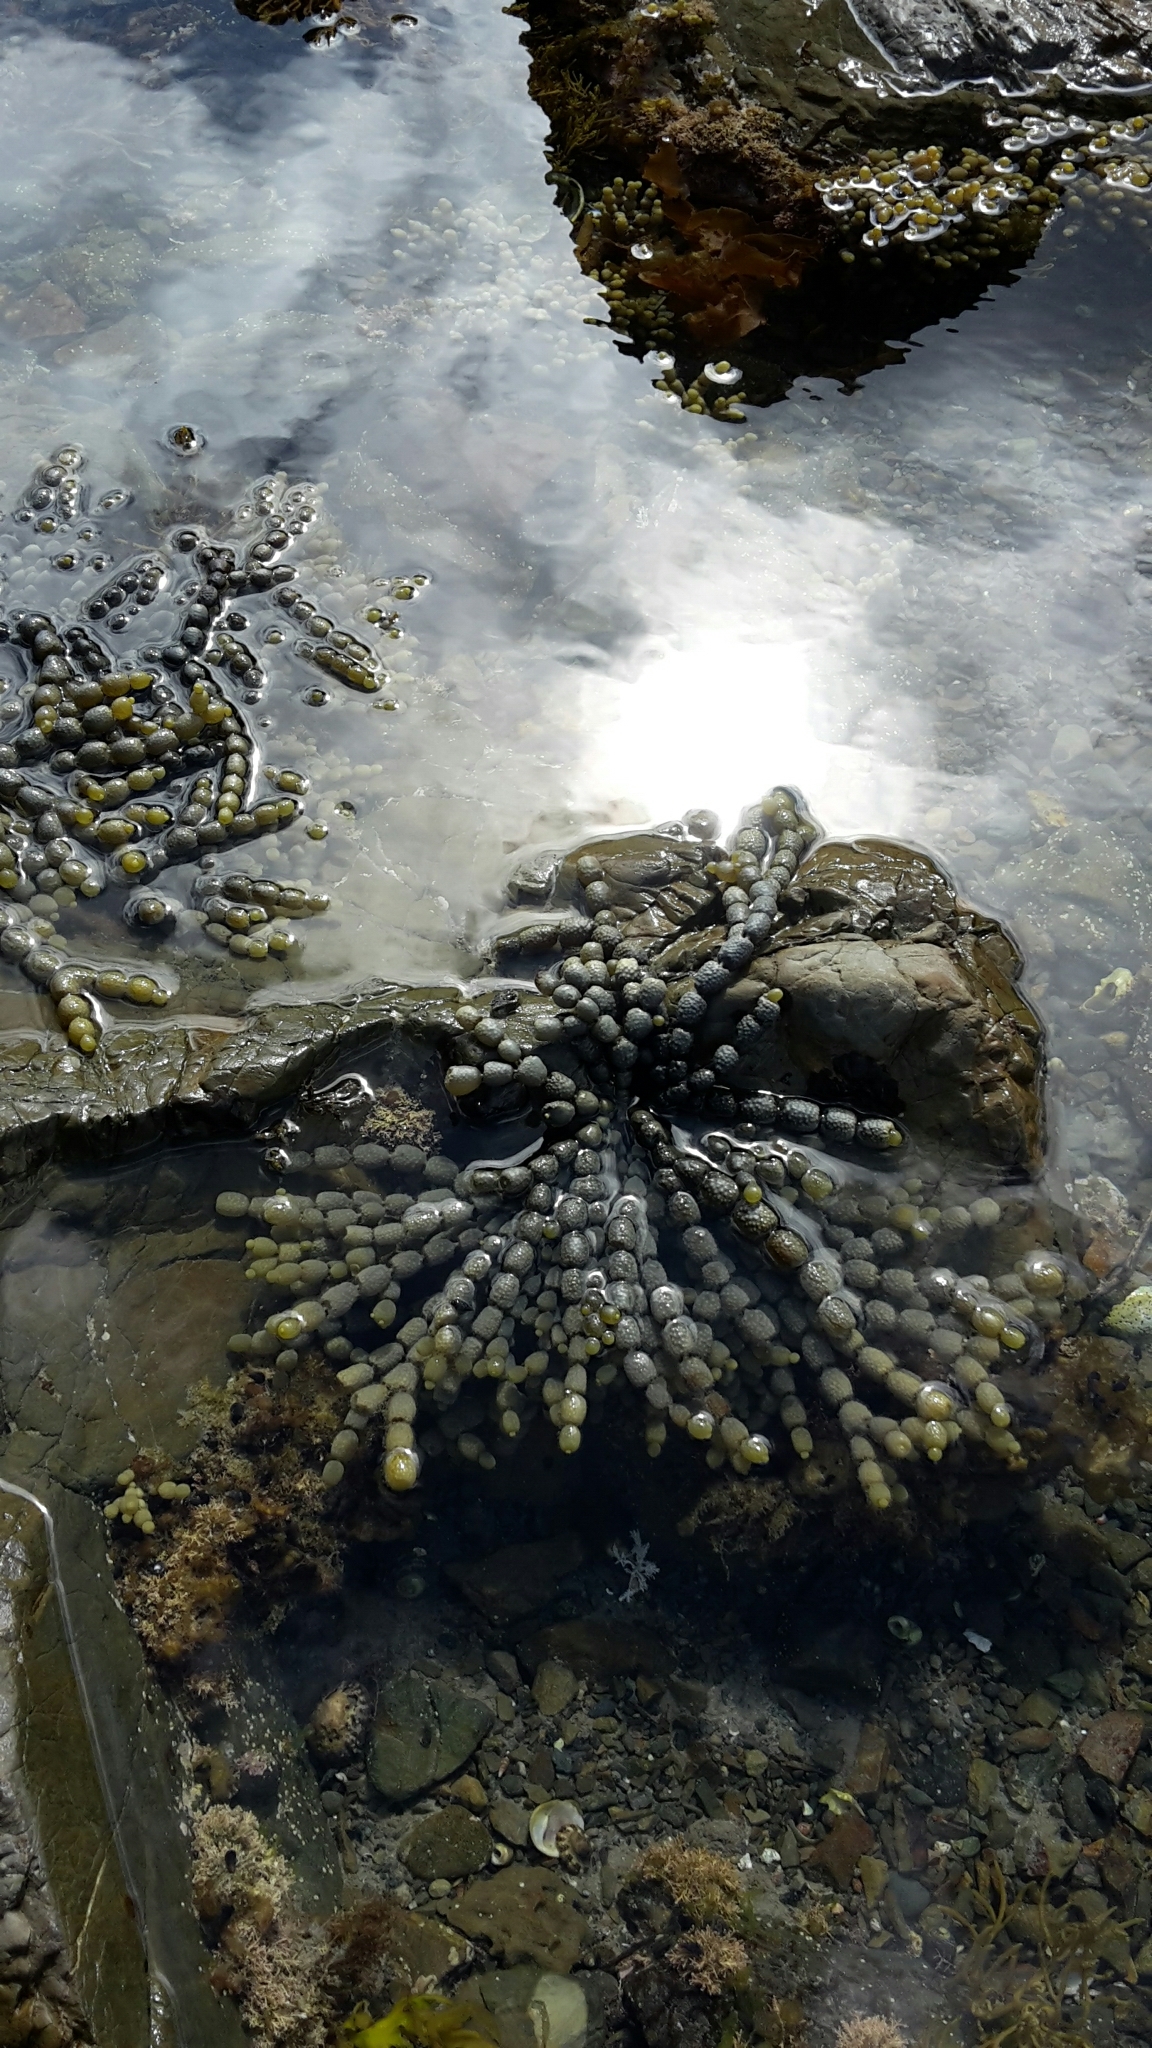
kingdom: Chromista
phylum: Ochrophyta
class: Phaeophyceae
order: Fucales
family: Hormosiraceae
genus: Hormosira
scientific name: Hormosira banksii
